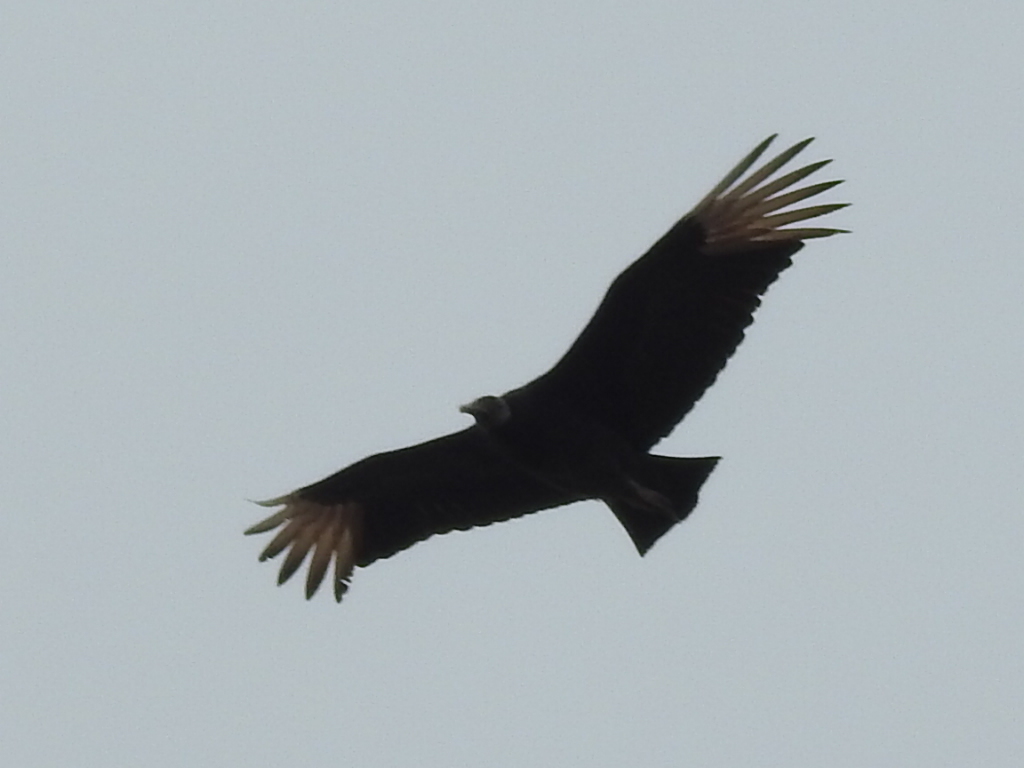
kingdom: Animalia
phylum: Chordata
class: Aves
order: Accipitriformes
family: Cathartidae
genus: Coragyps
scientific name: Coragyps atratus
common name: Black vulture
